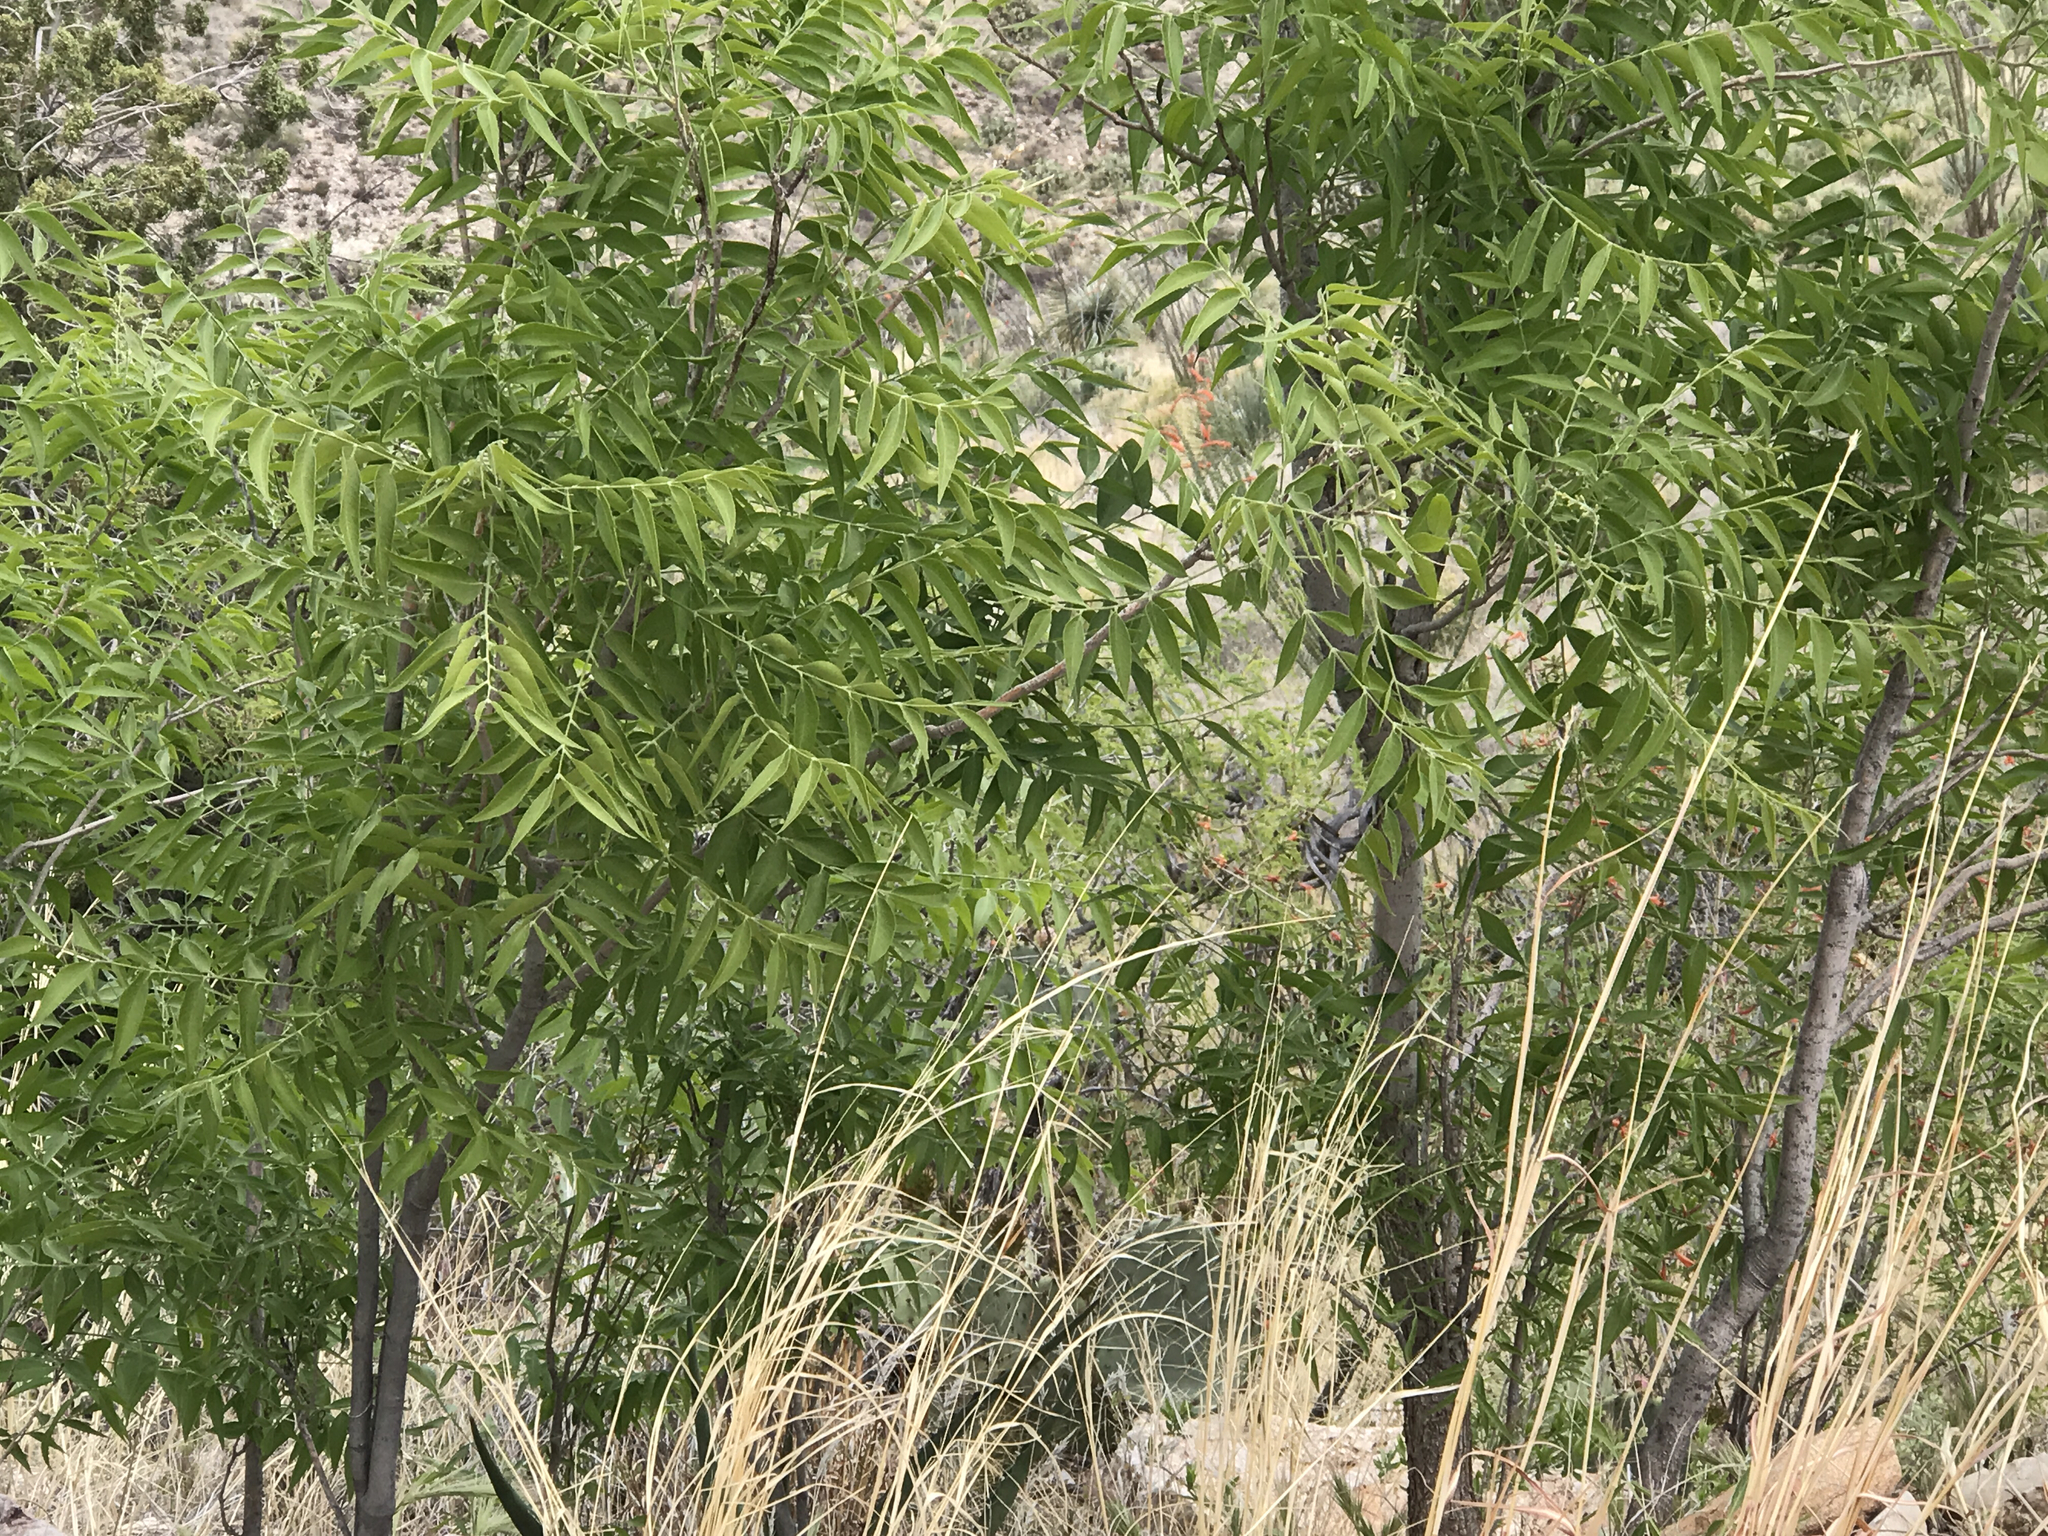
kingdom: Plantae
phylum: Tracheophyta
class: Magnoliopsida
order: Fagales
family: Juglandaceae
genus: Juglans
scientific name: Juglans major
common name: Arizona walnut
